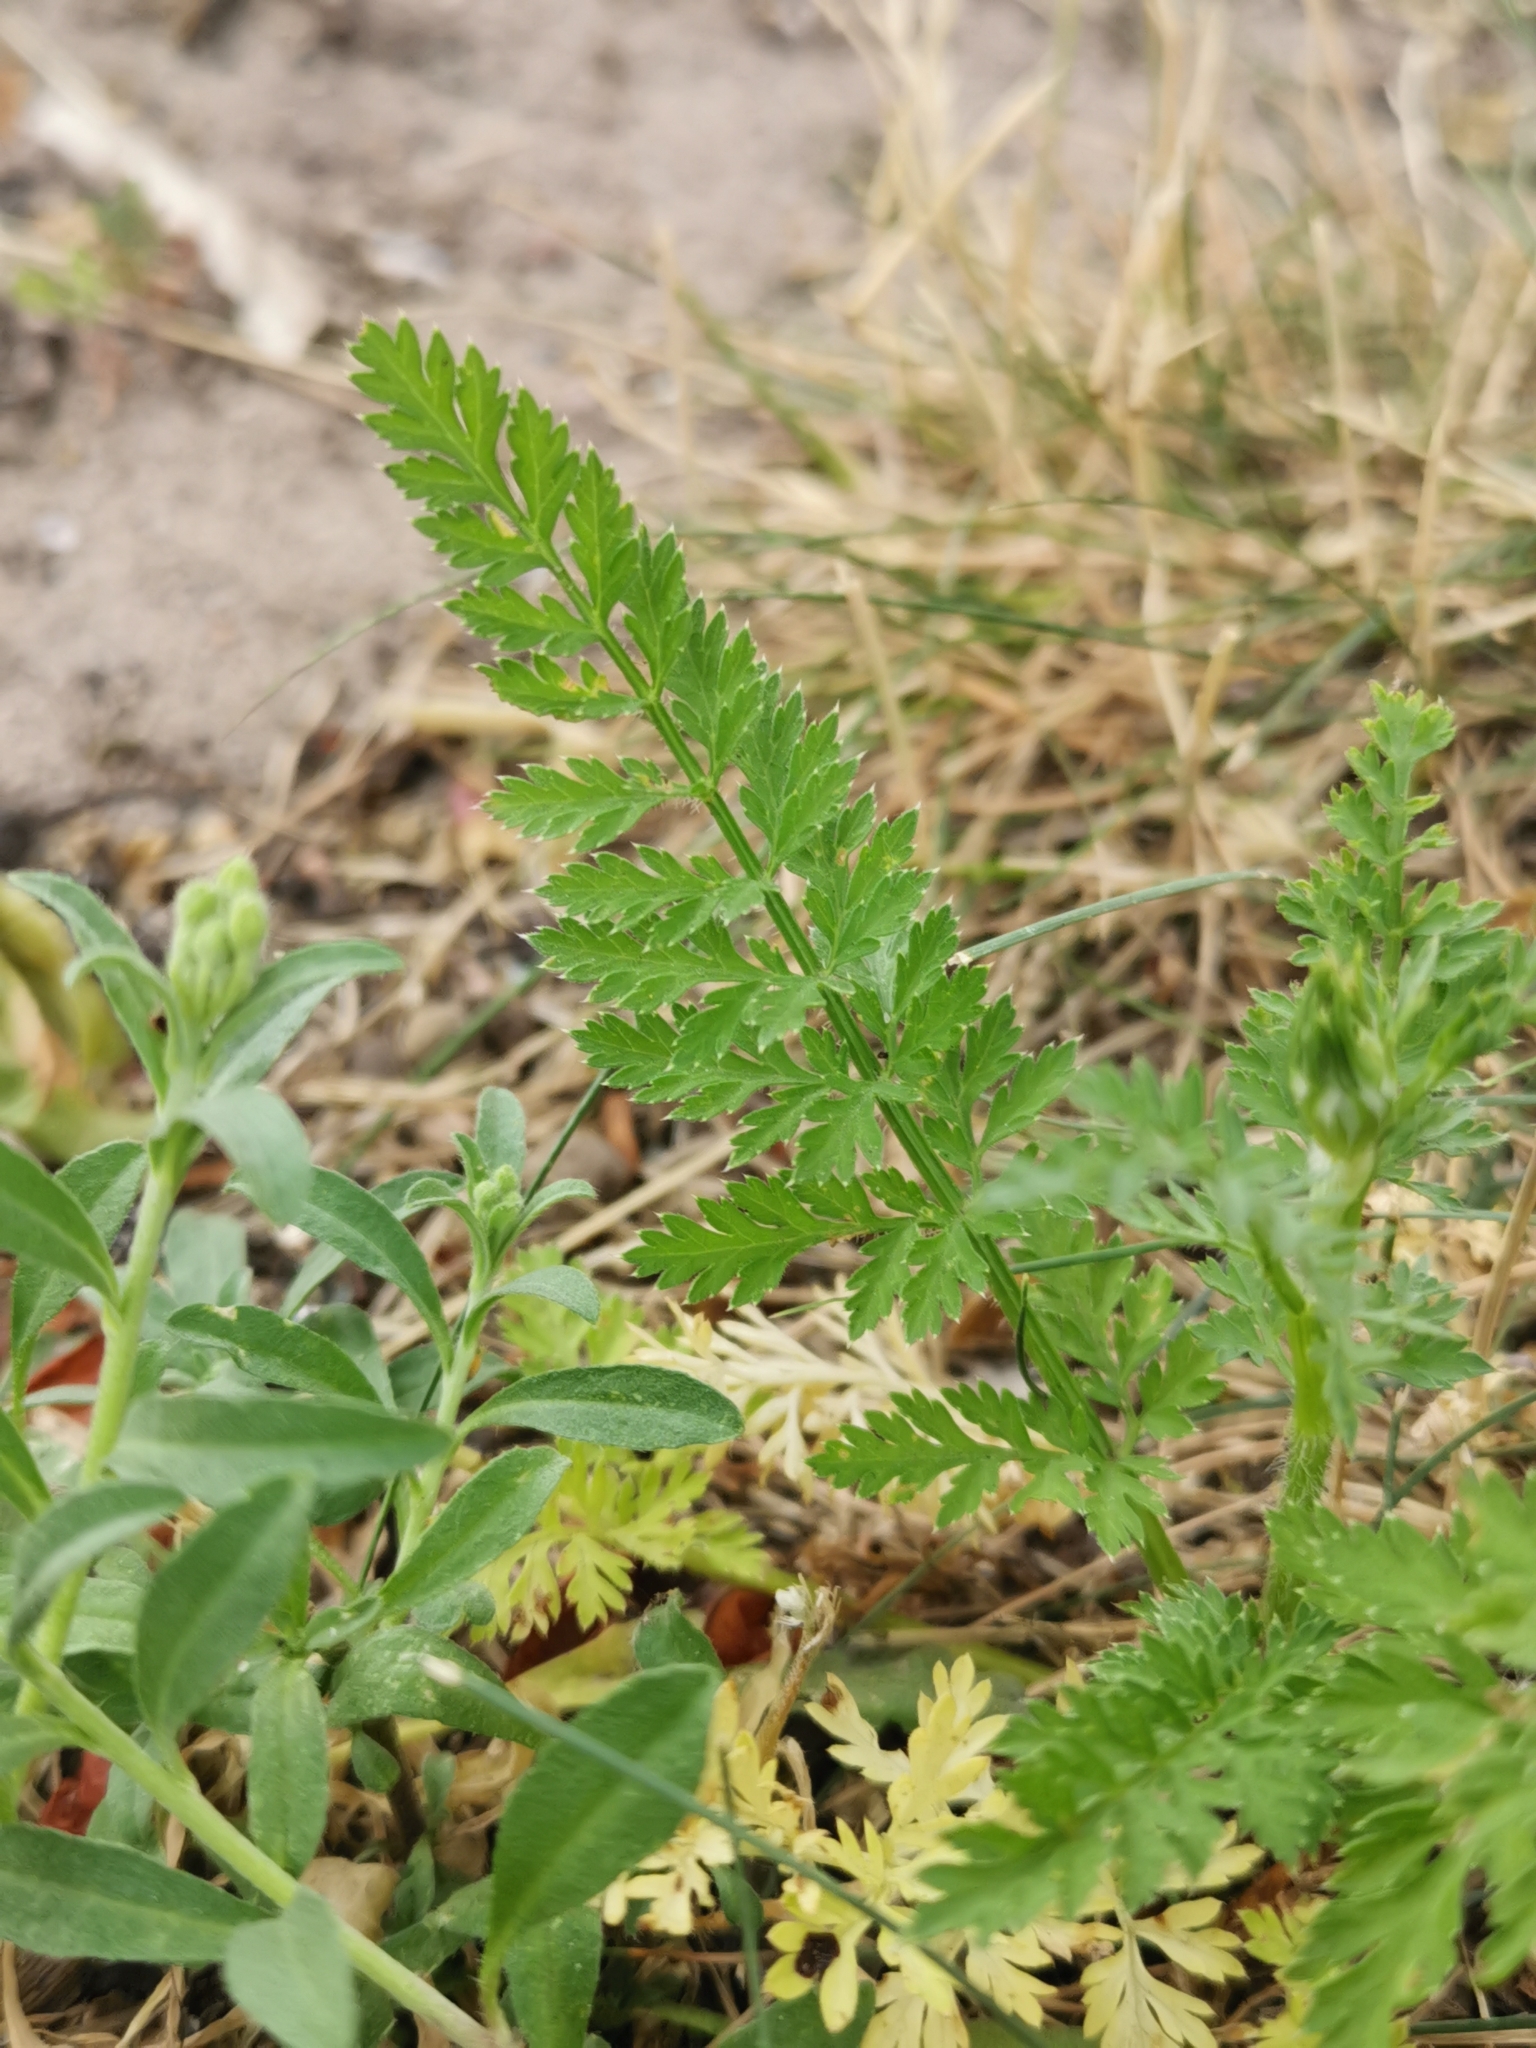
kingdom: Plantae
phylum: Tracheophyta
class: Magnoliopsida
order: Apiales
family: Apiaceae
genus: Daucus
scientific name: Daucus carota
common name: Wild carrot
